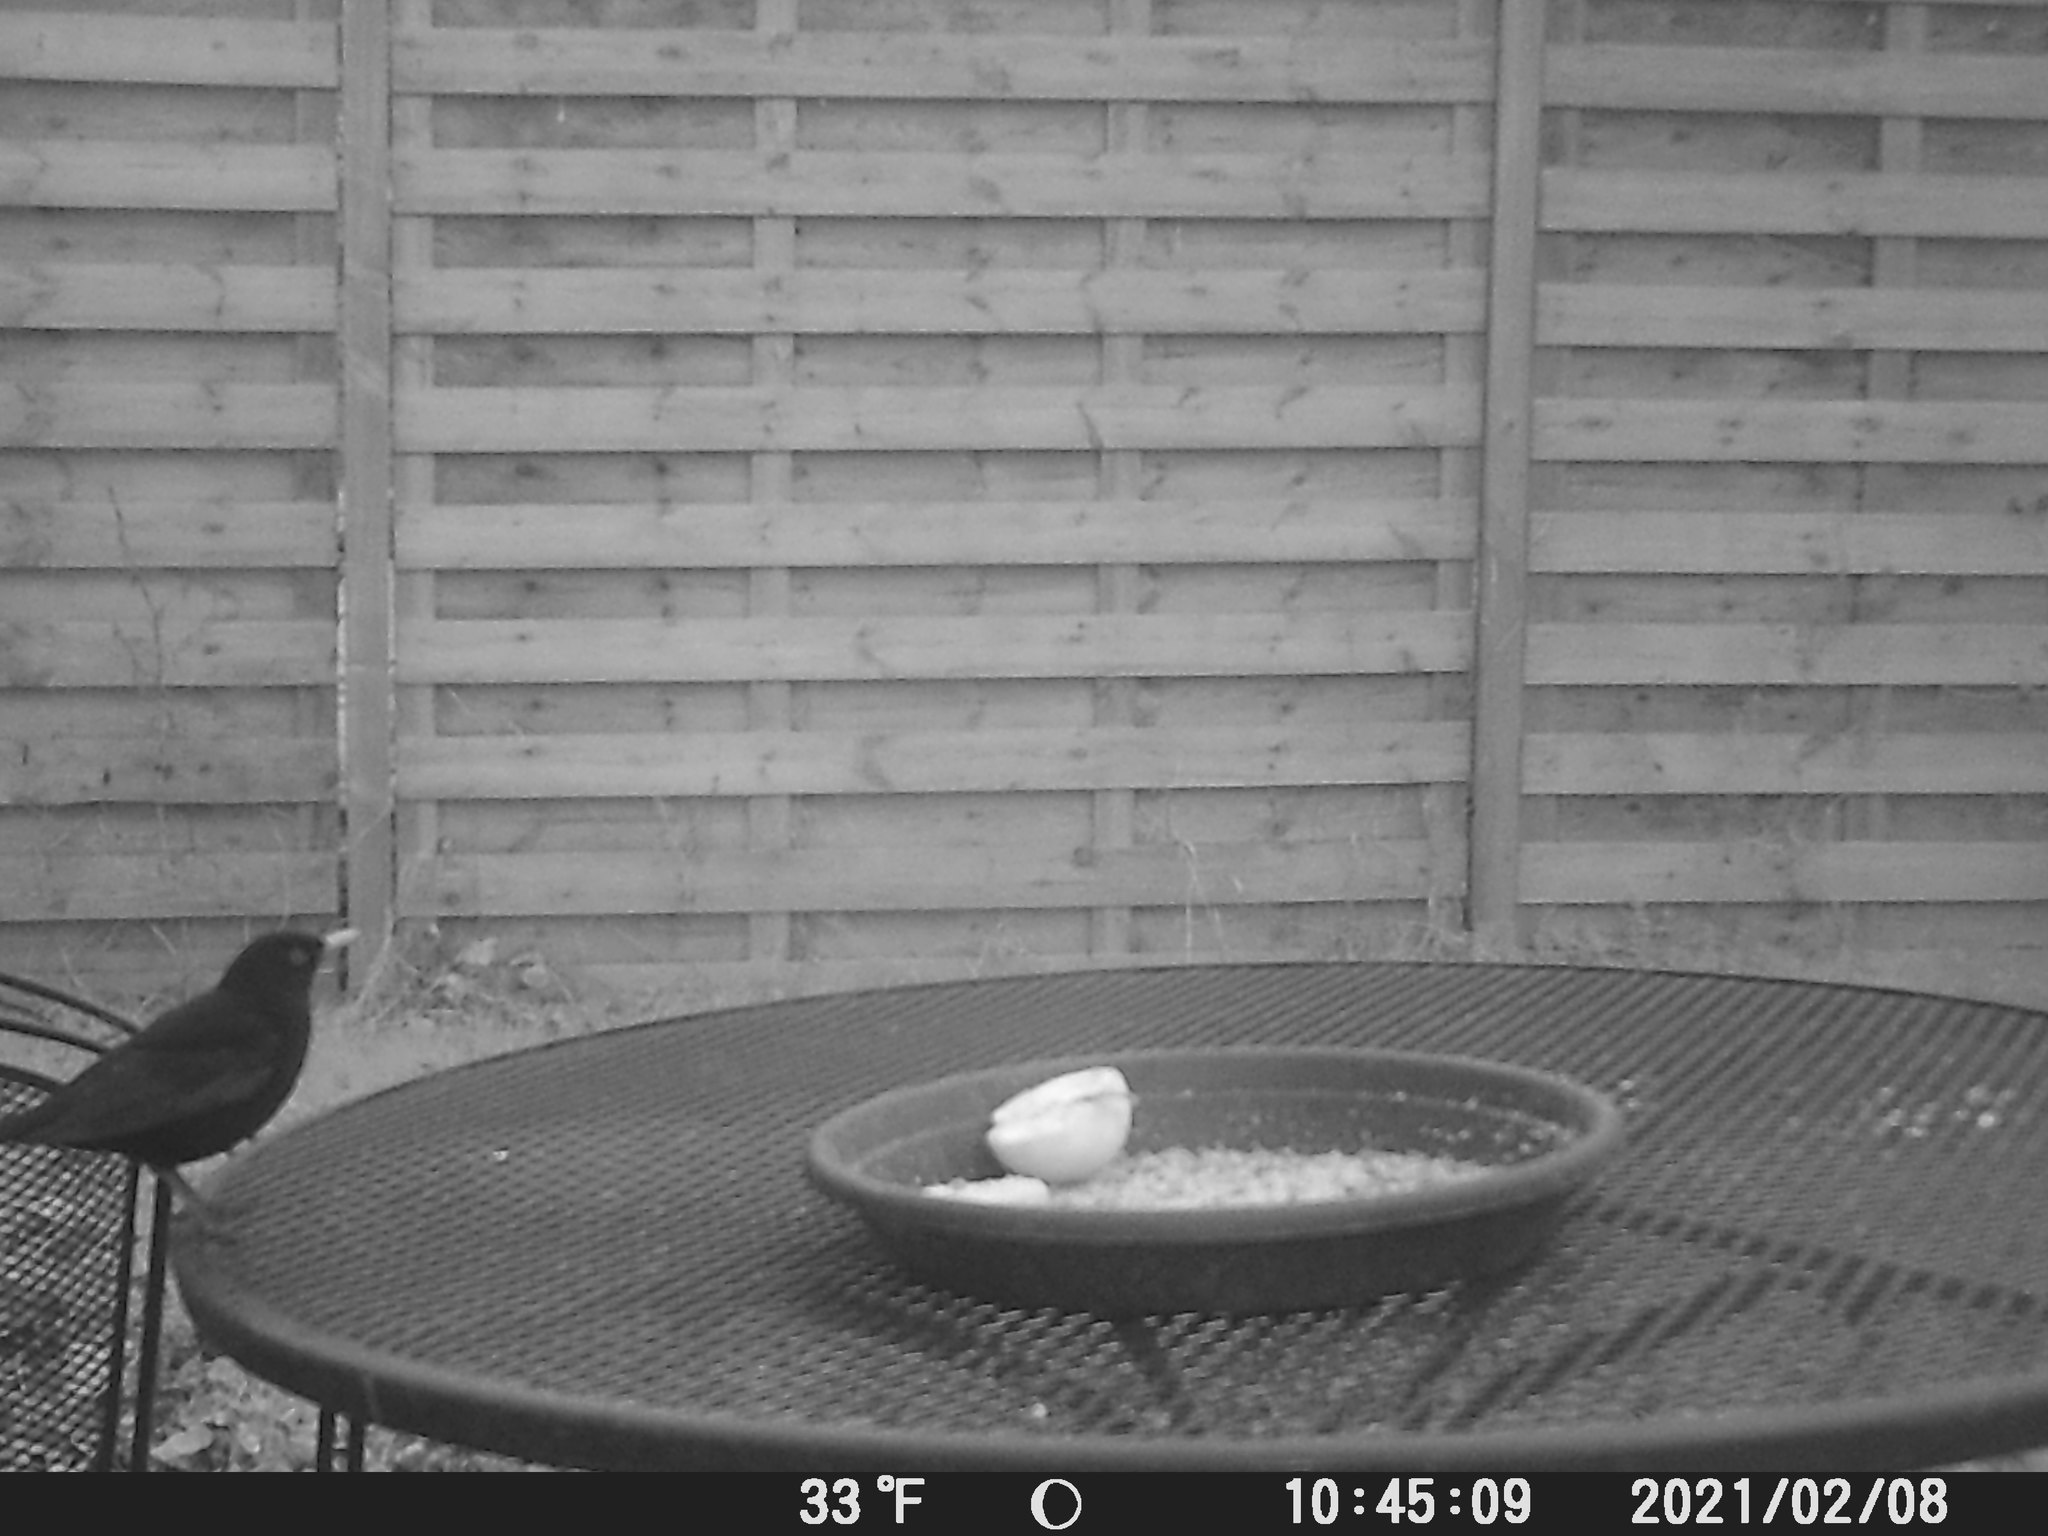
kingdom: Animalia
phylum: Chordata
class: Aves
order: Passeriformes
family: Turdidae
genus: Turdus
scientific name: Turdus merula
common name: Common blackbird
